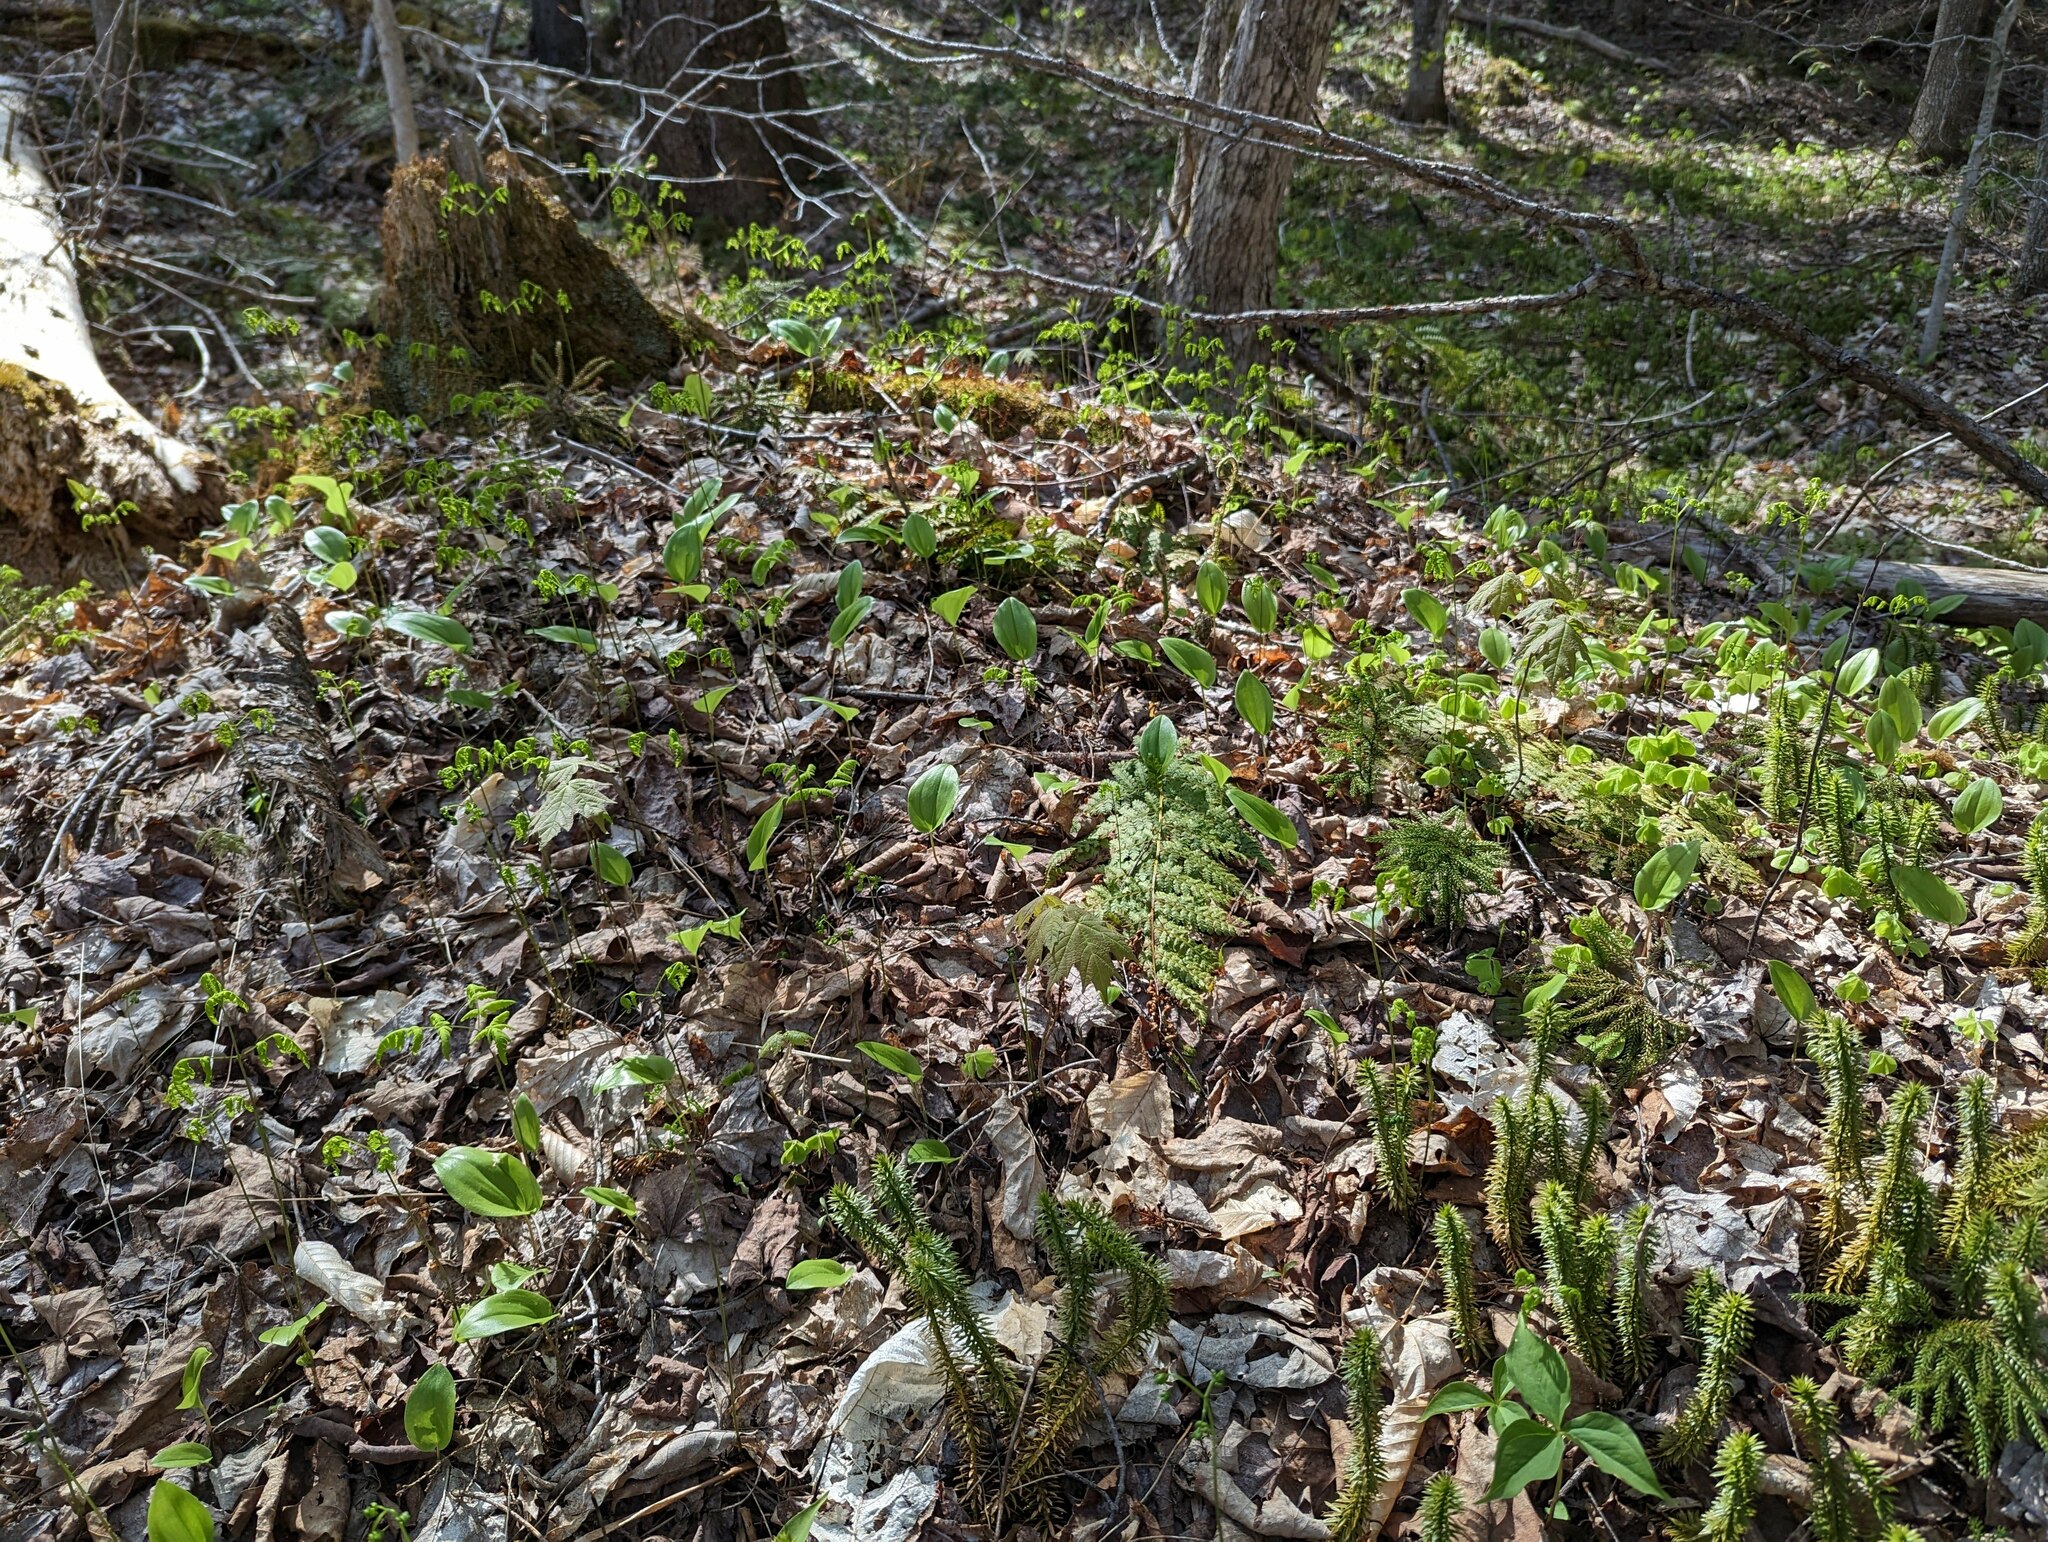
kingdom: Plantae
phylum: Tracheophyta
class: Liliopsida
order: Asparagales
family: Asparagaceae
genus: Maianthemum
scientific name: Maianthemum canadense
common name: False lily-of-the-valley
